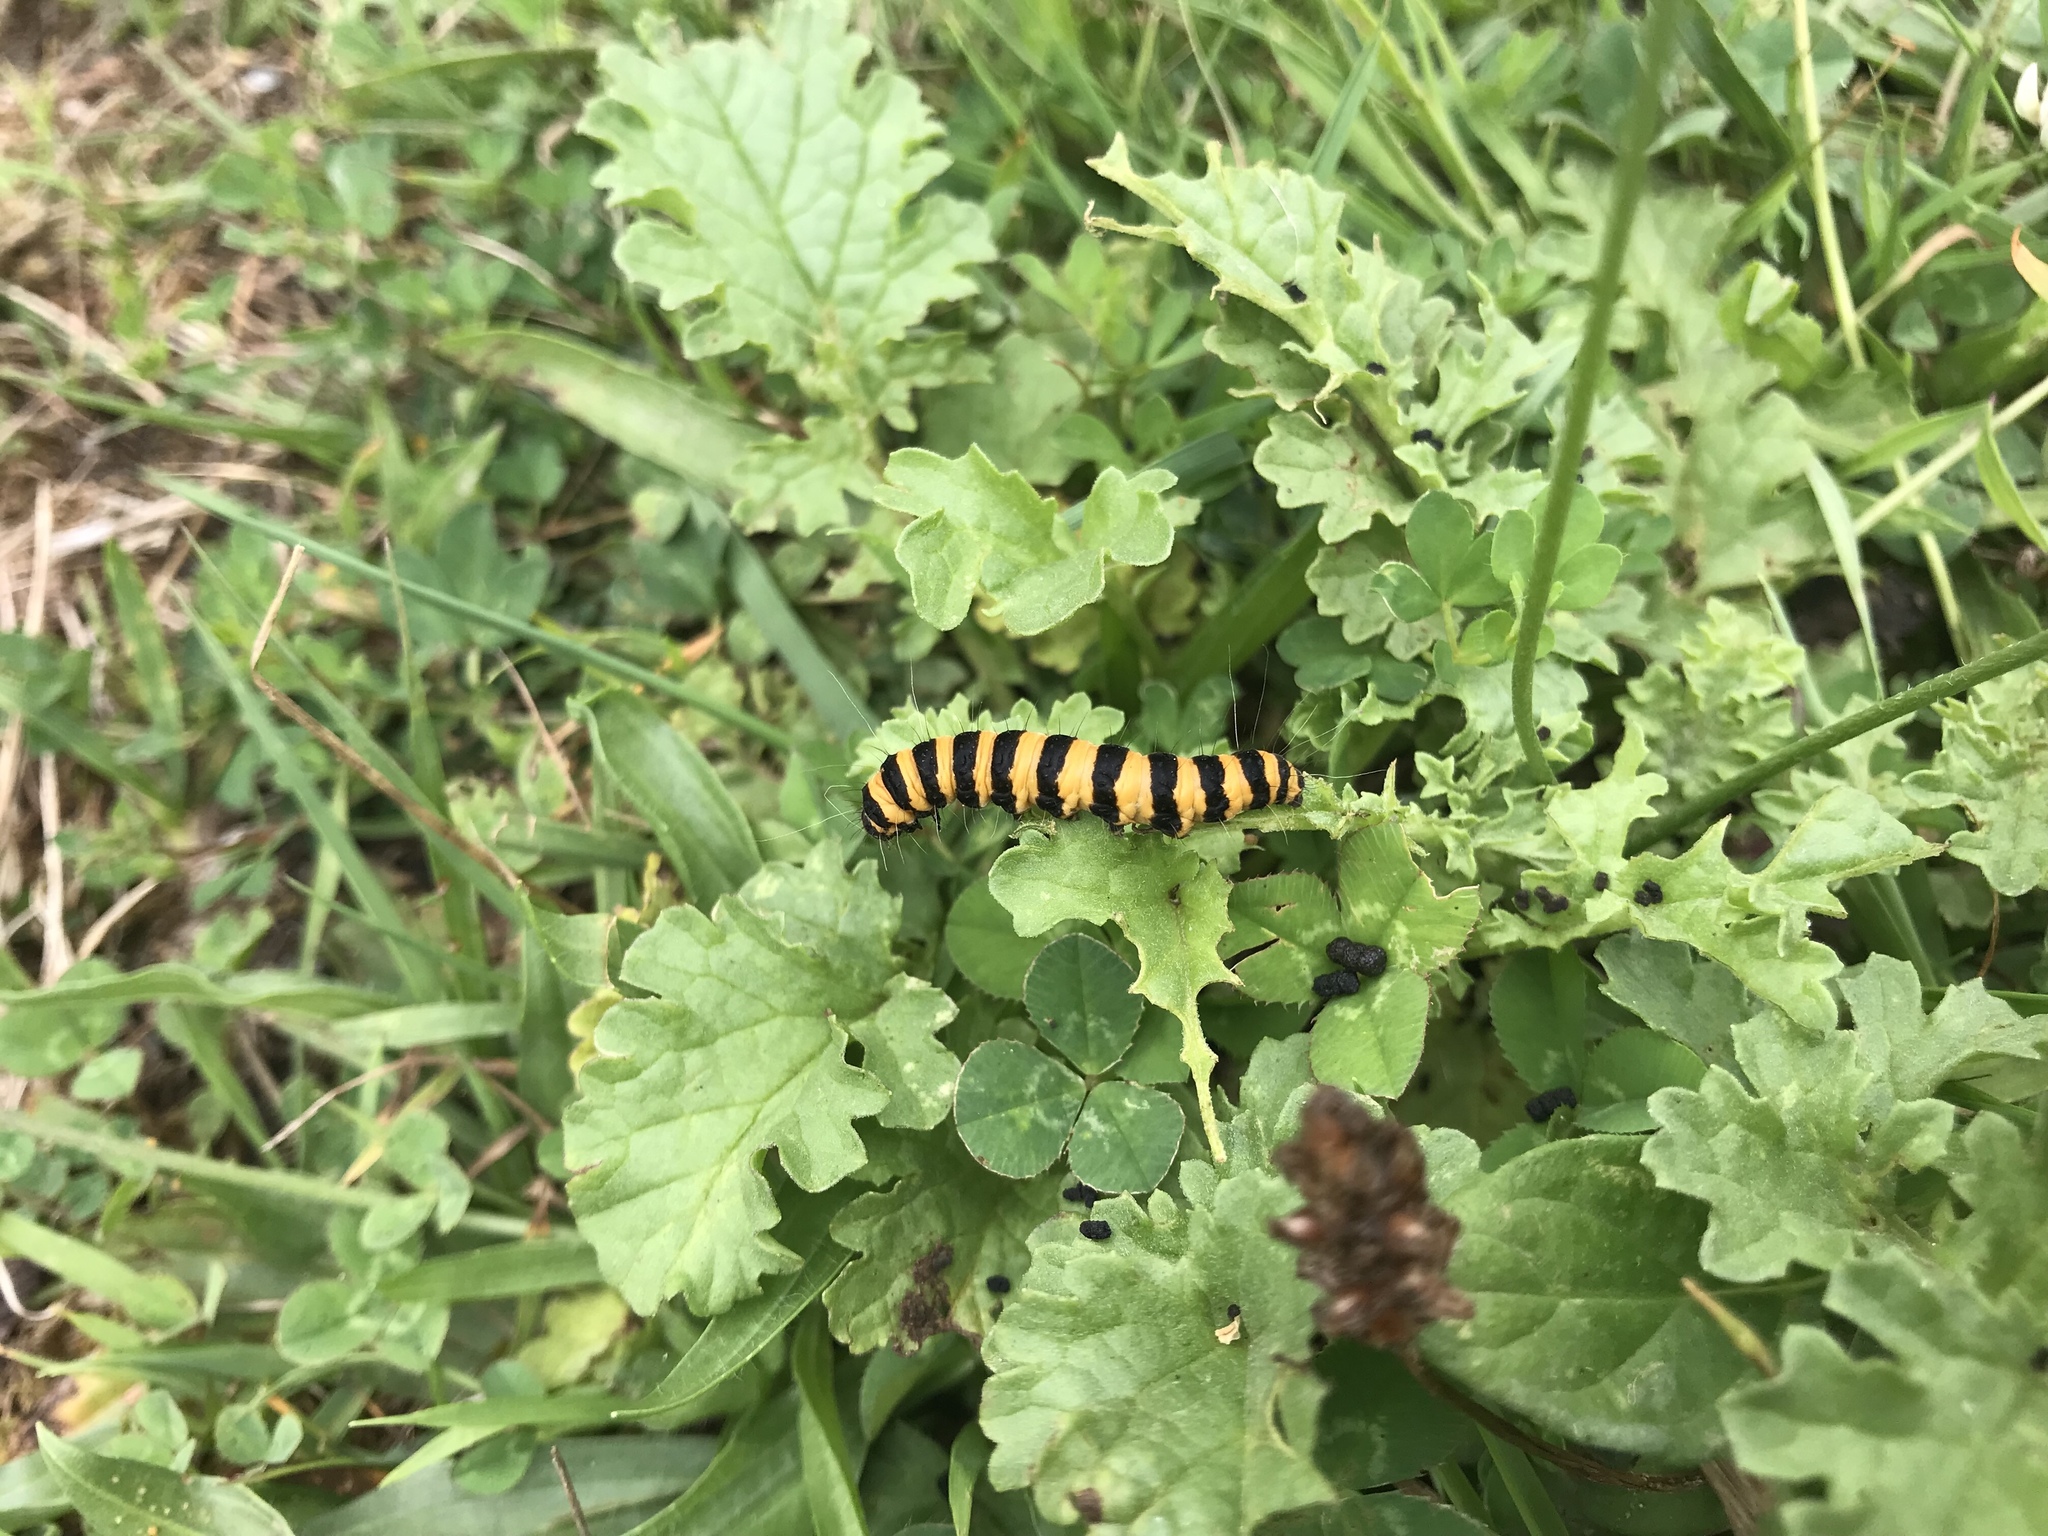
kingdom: Animalia
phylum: Arthropoda
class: Insecta
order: Lepidoptera
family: Erebidae
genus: Tyria
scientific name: Tyria jacobaeae
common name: Cinnabar
